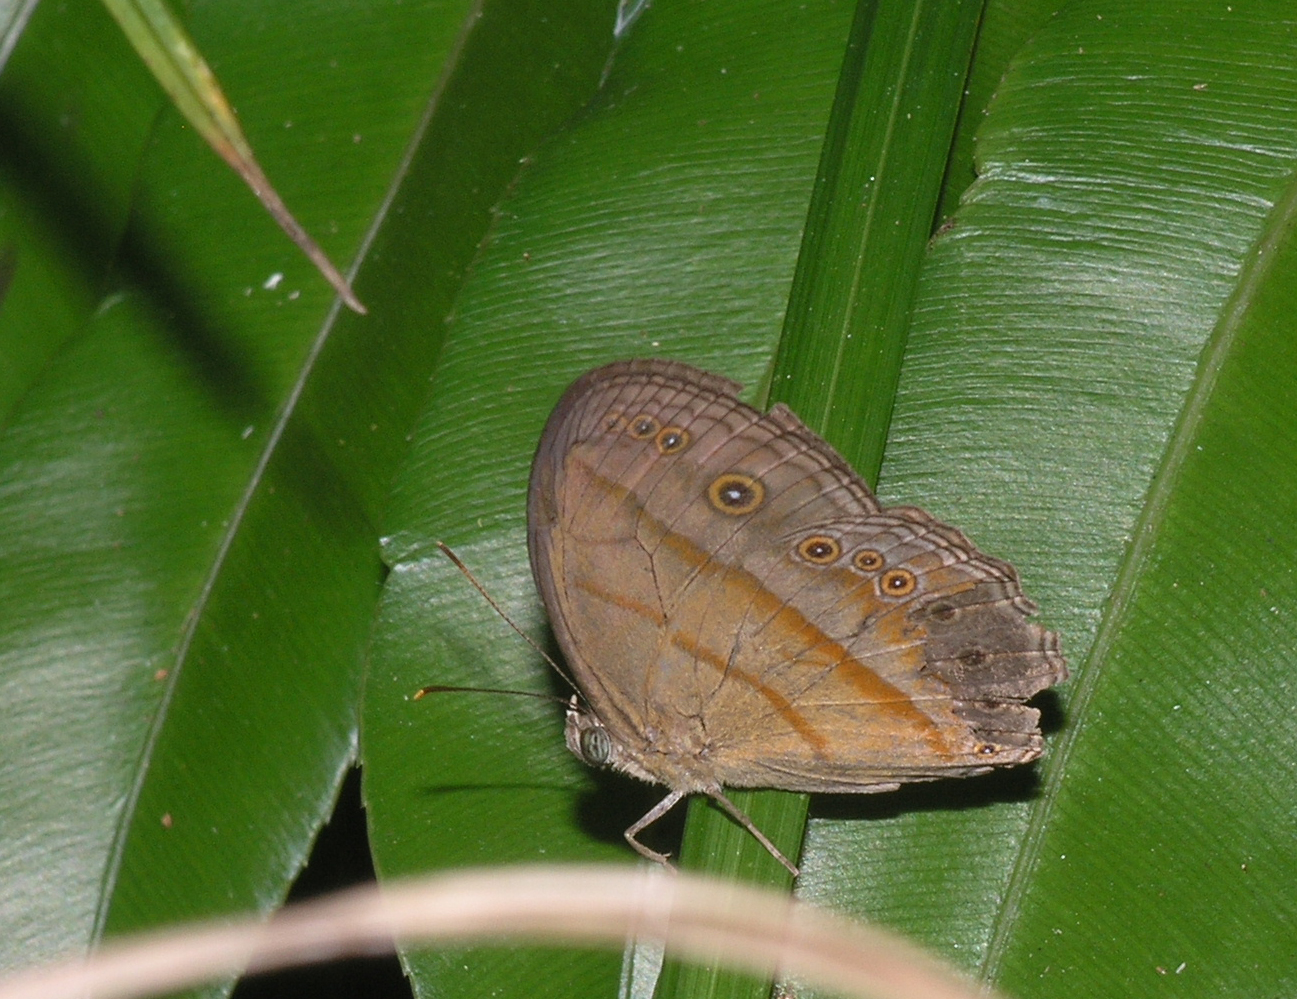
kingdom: Animalia
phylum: Arthropoda
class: Insecta
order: Lepidoptera
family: Nymphalidae
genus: Mycalesis
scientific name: Mycalesis fuscum
